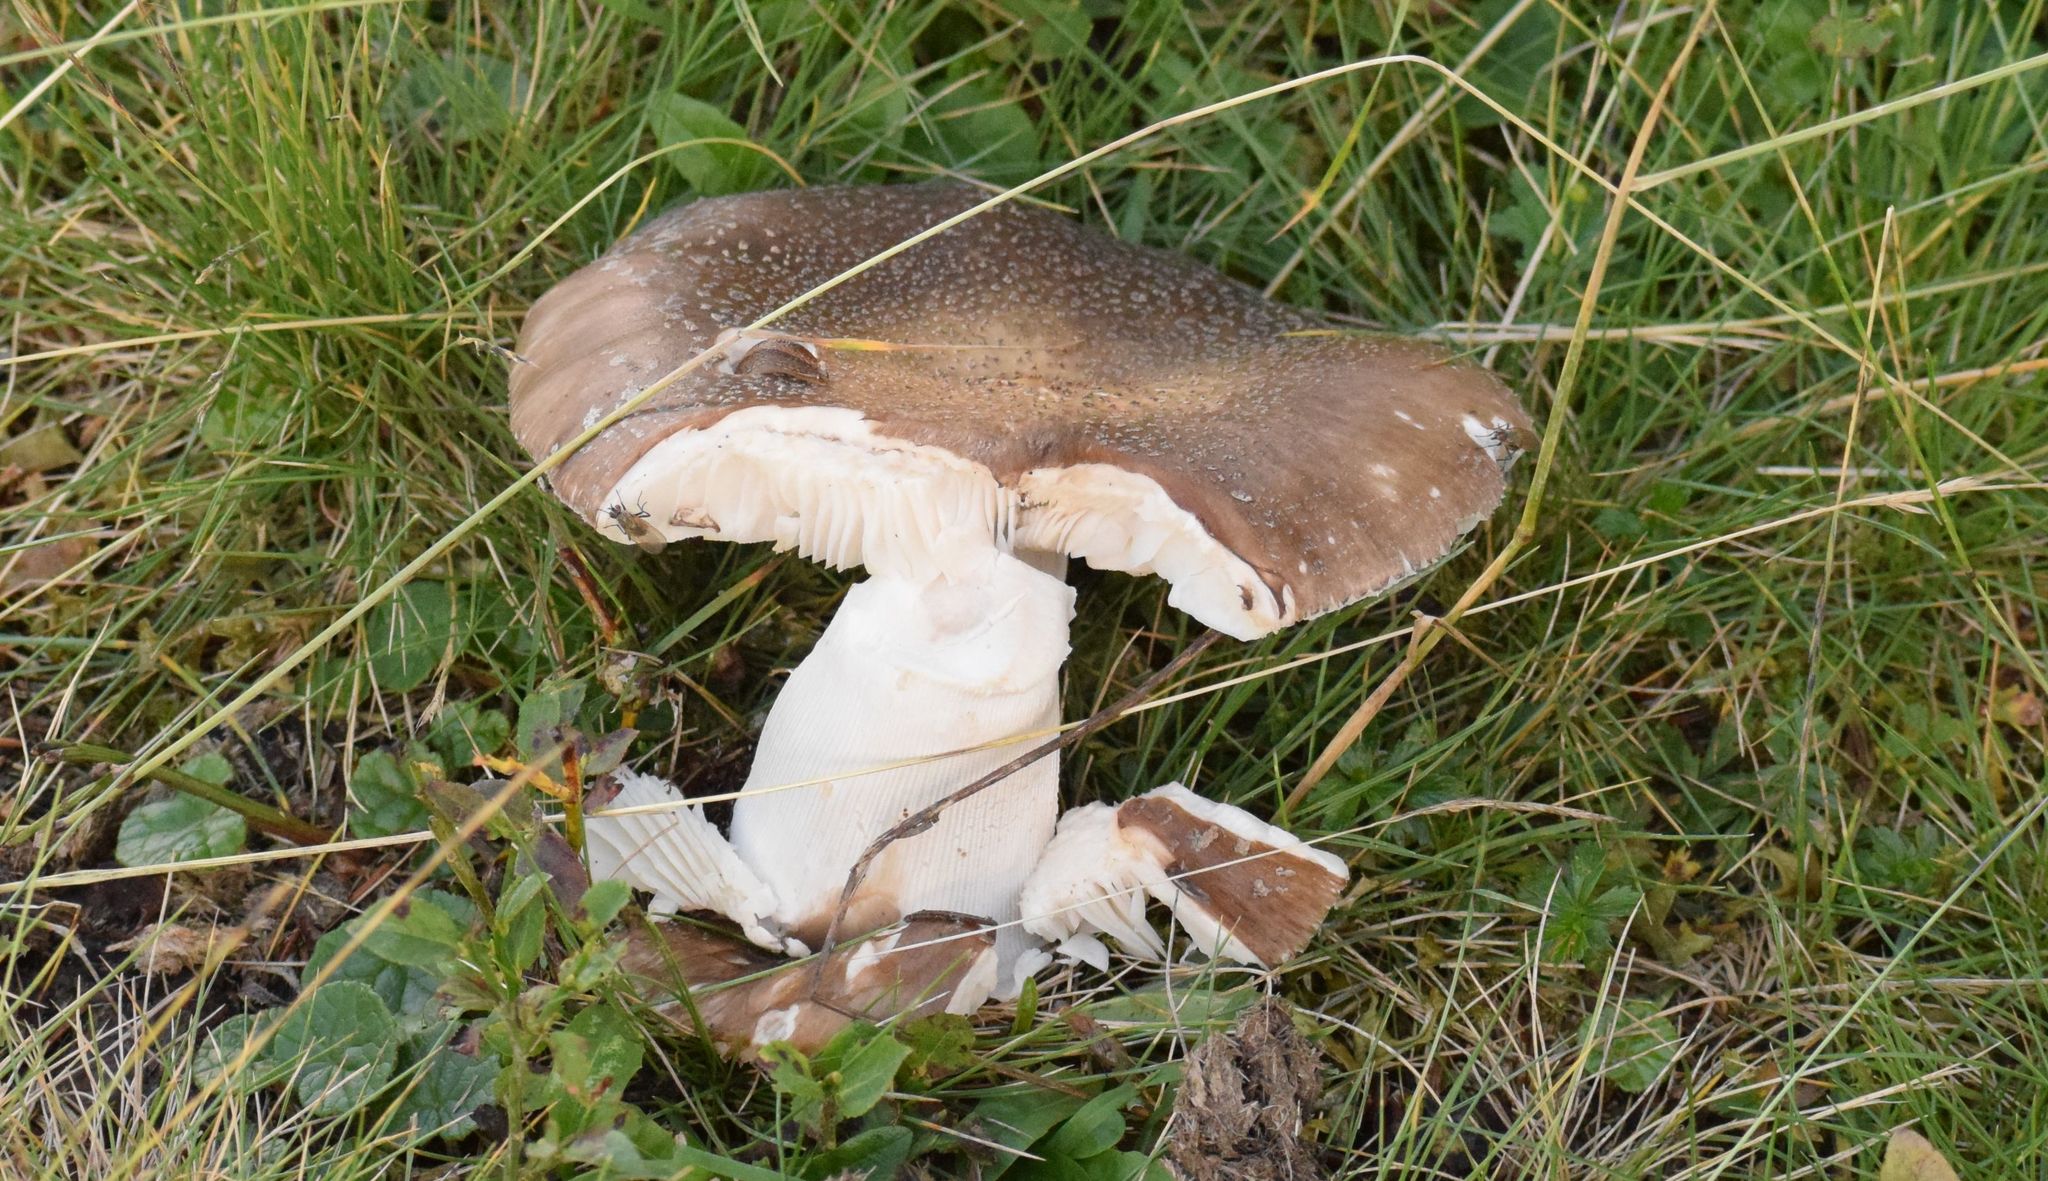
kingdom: Fungi
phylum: Basidiomycota
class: Agaricomycetes
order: Agaricales
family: Amanitaceae
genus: Amanita
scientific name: Amanita excelsa
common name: European false blusher
